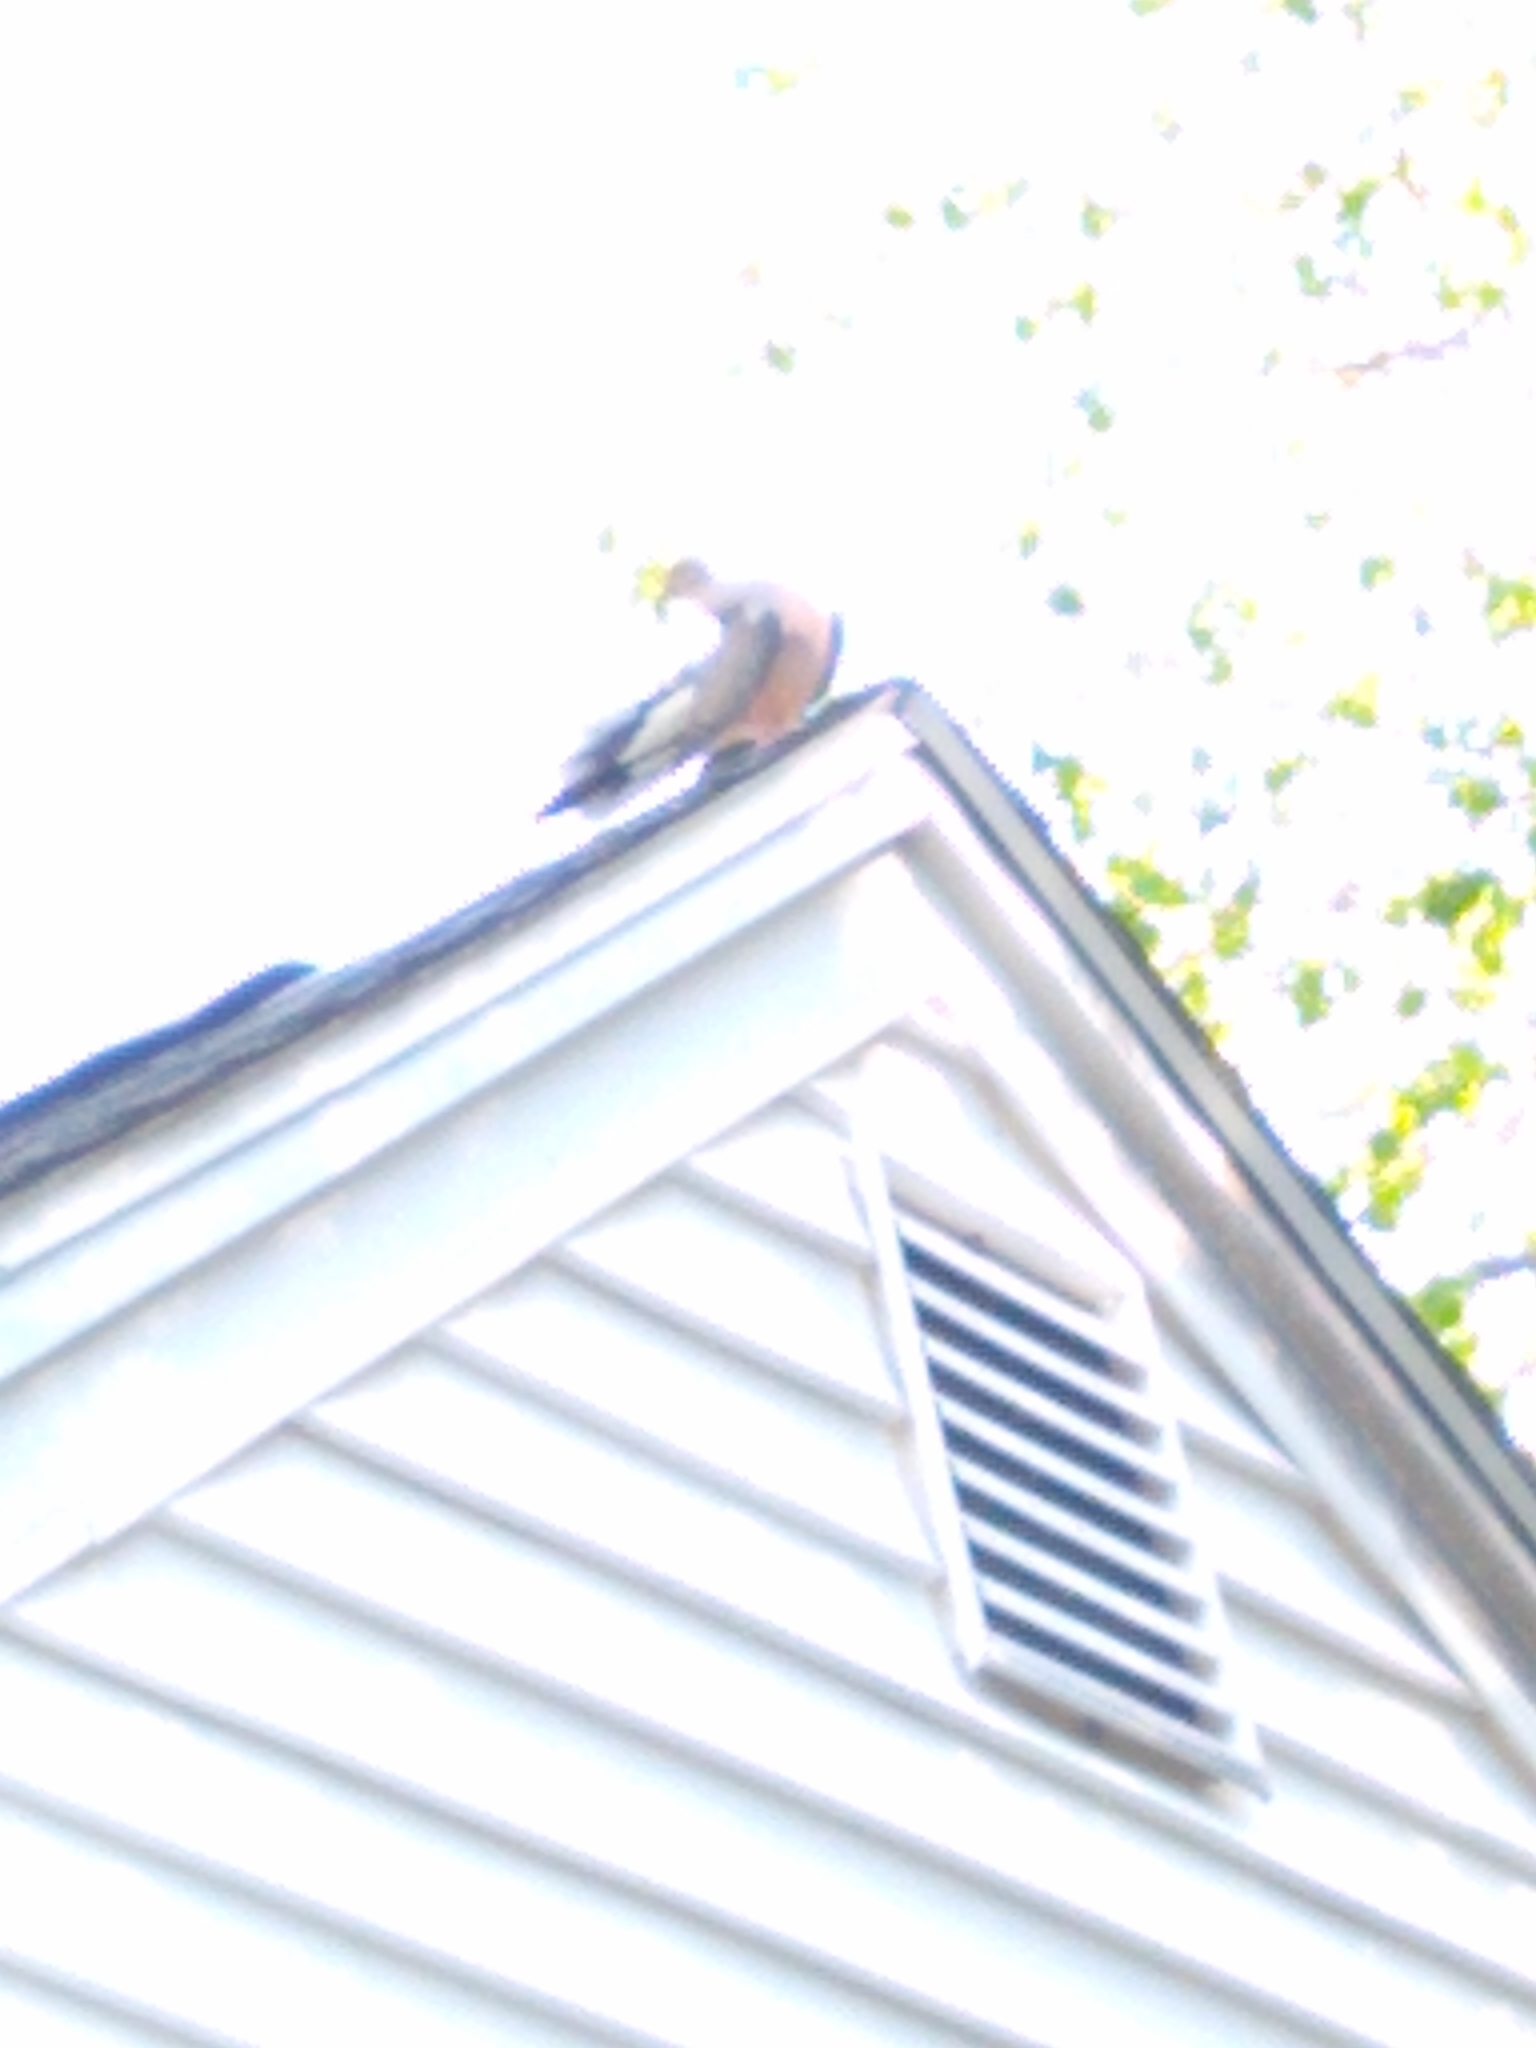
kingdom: Animalia
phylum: Chordata
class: Aves
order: Columbiformes
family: Columbidae
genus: Zenaida
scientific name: Zenaida macroura
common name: Mourning dove
